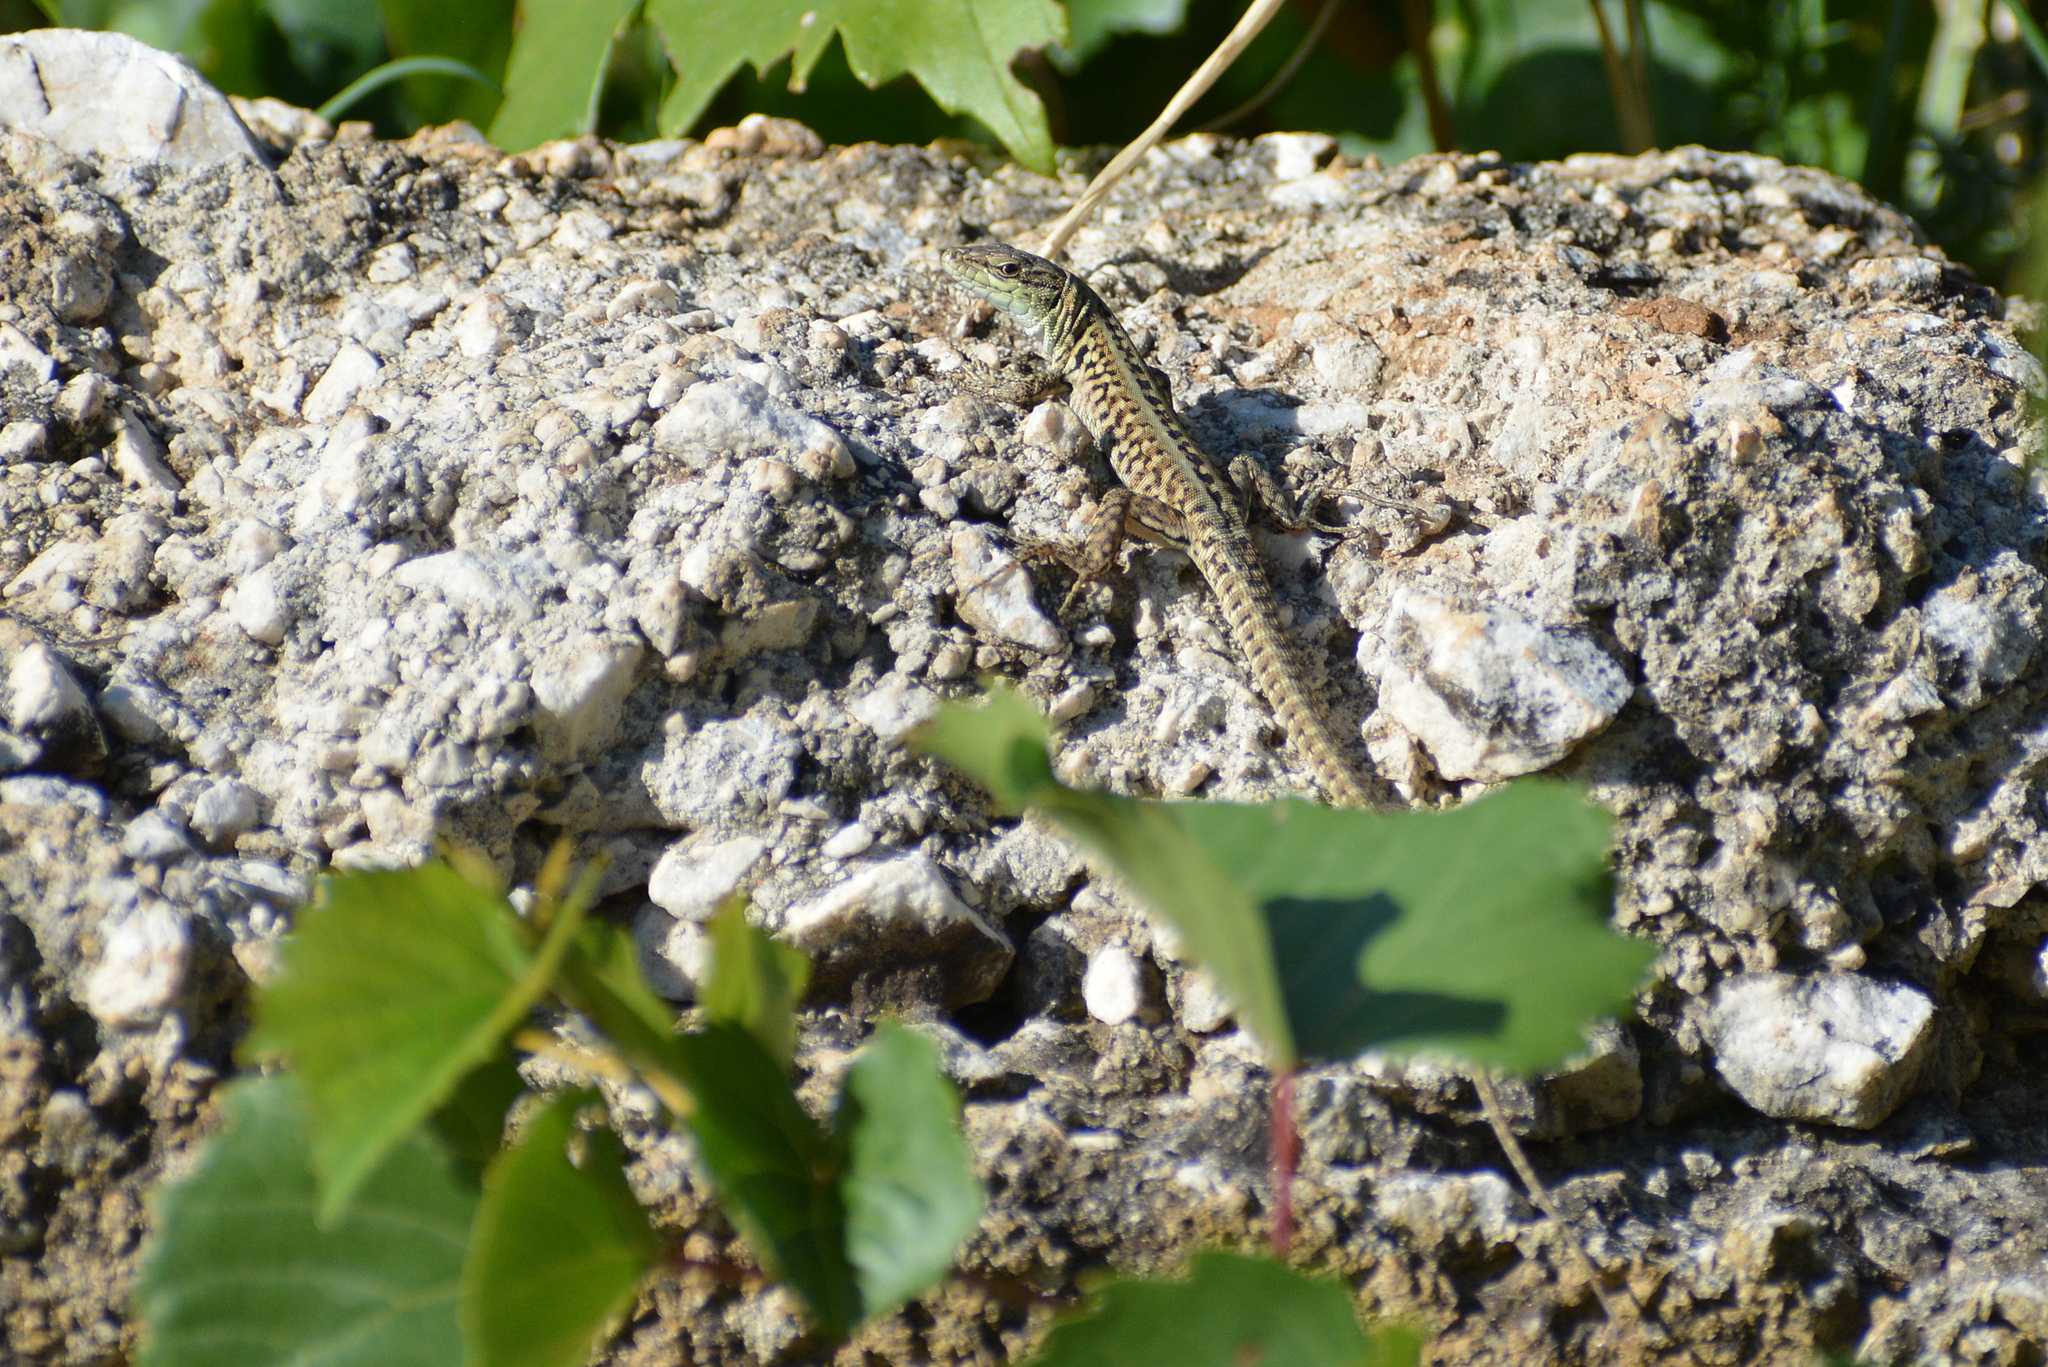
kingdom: Animalia
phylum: Chordata
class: Squamata
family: Lacertidae
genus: Podarcis
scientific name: Podarcis siculus
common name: Italian wall lizard
